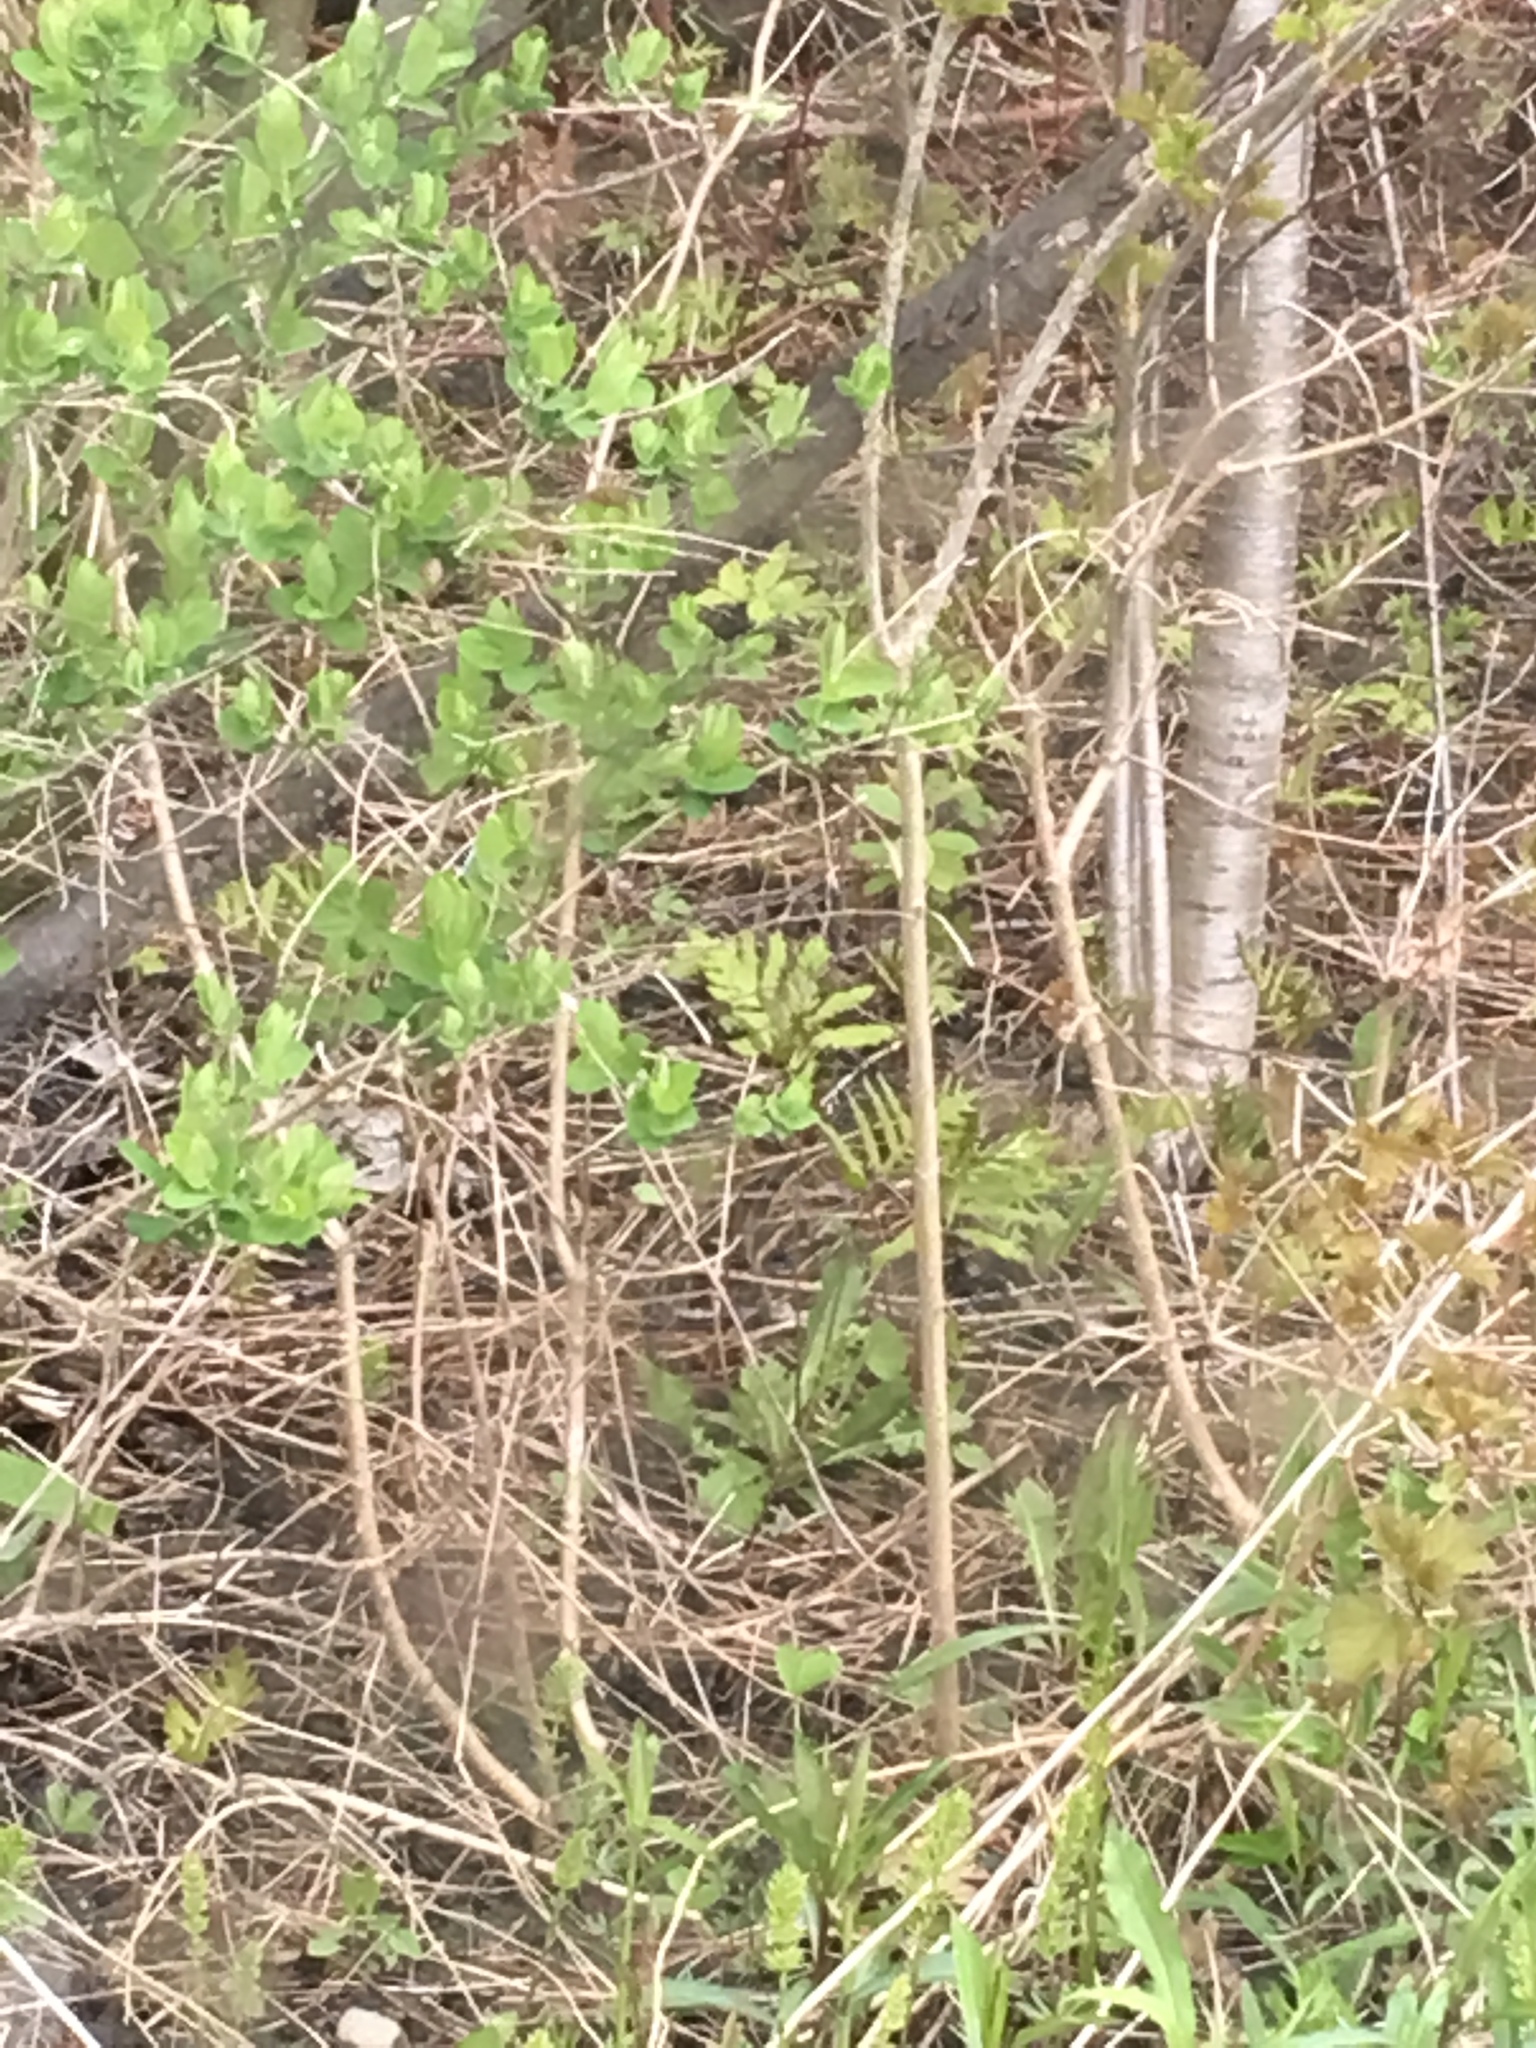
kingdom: Plantae
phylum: Tracheophyta
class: Polypodiopsida
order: Polypodiales
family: Onocleaceae
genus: Onoclea
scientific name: Onoclea sensibilis
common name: Sensitive fern
